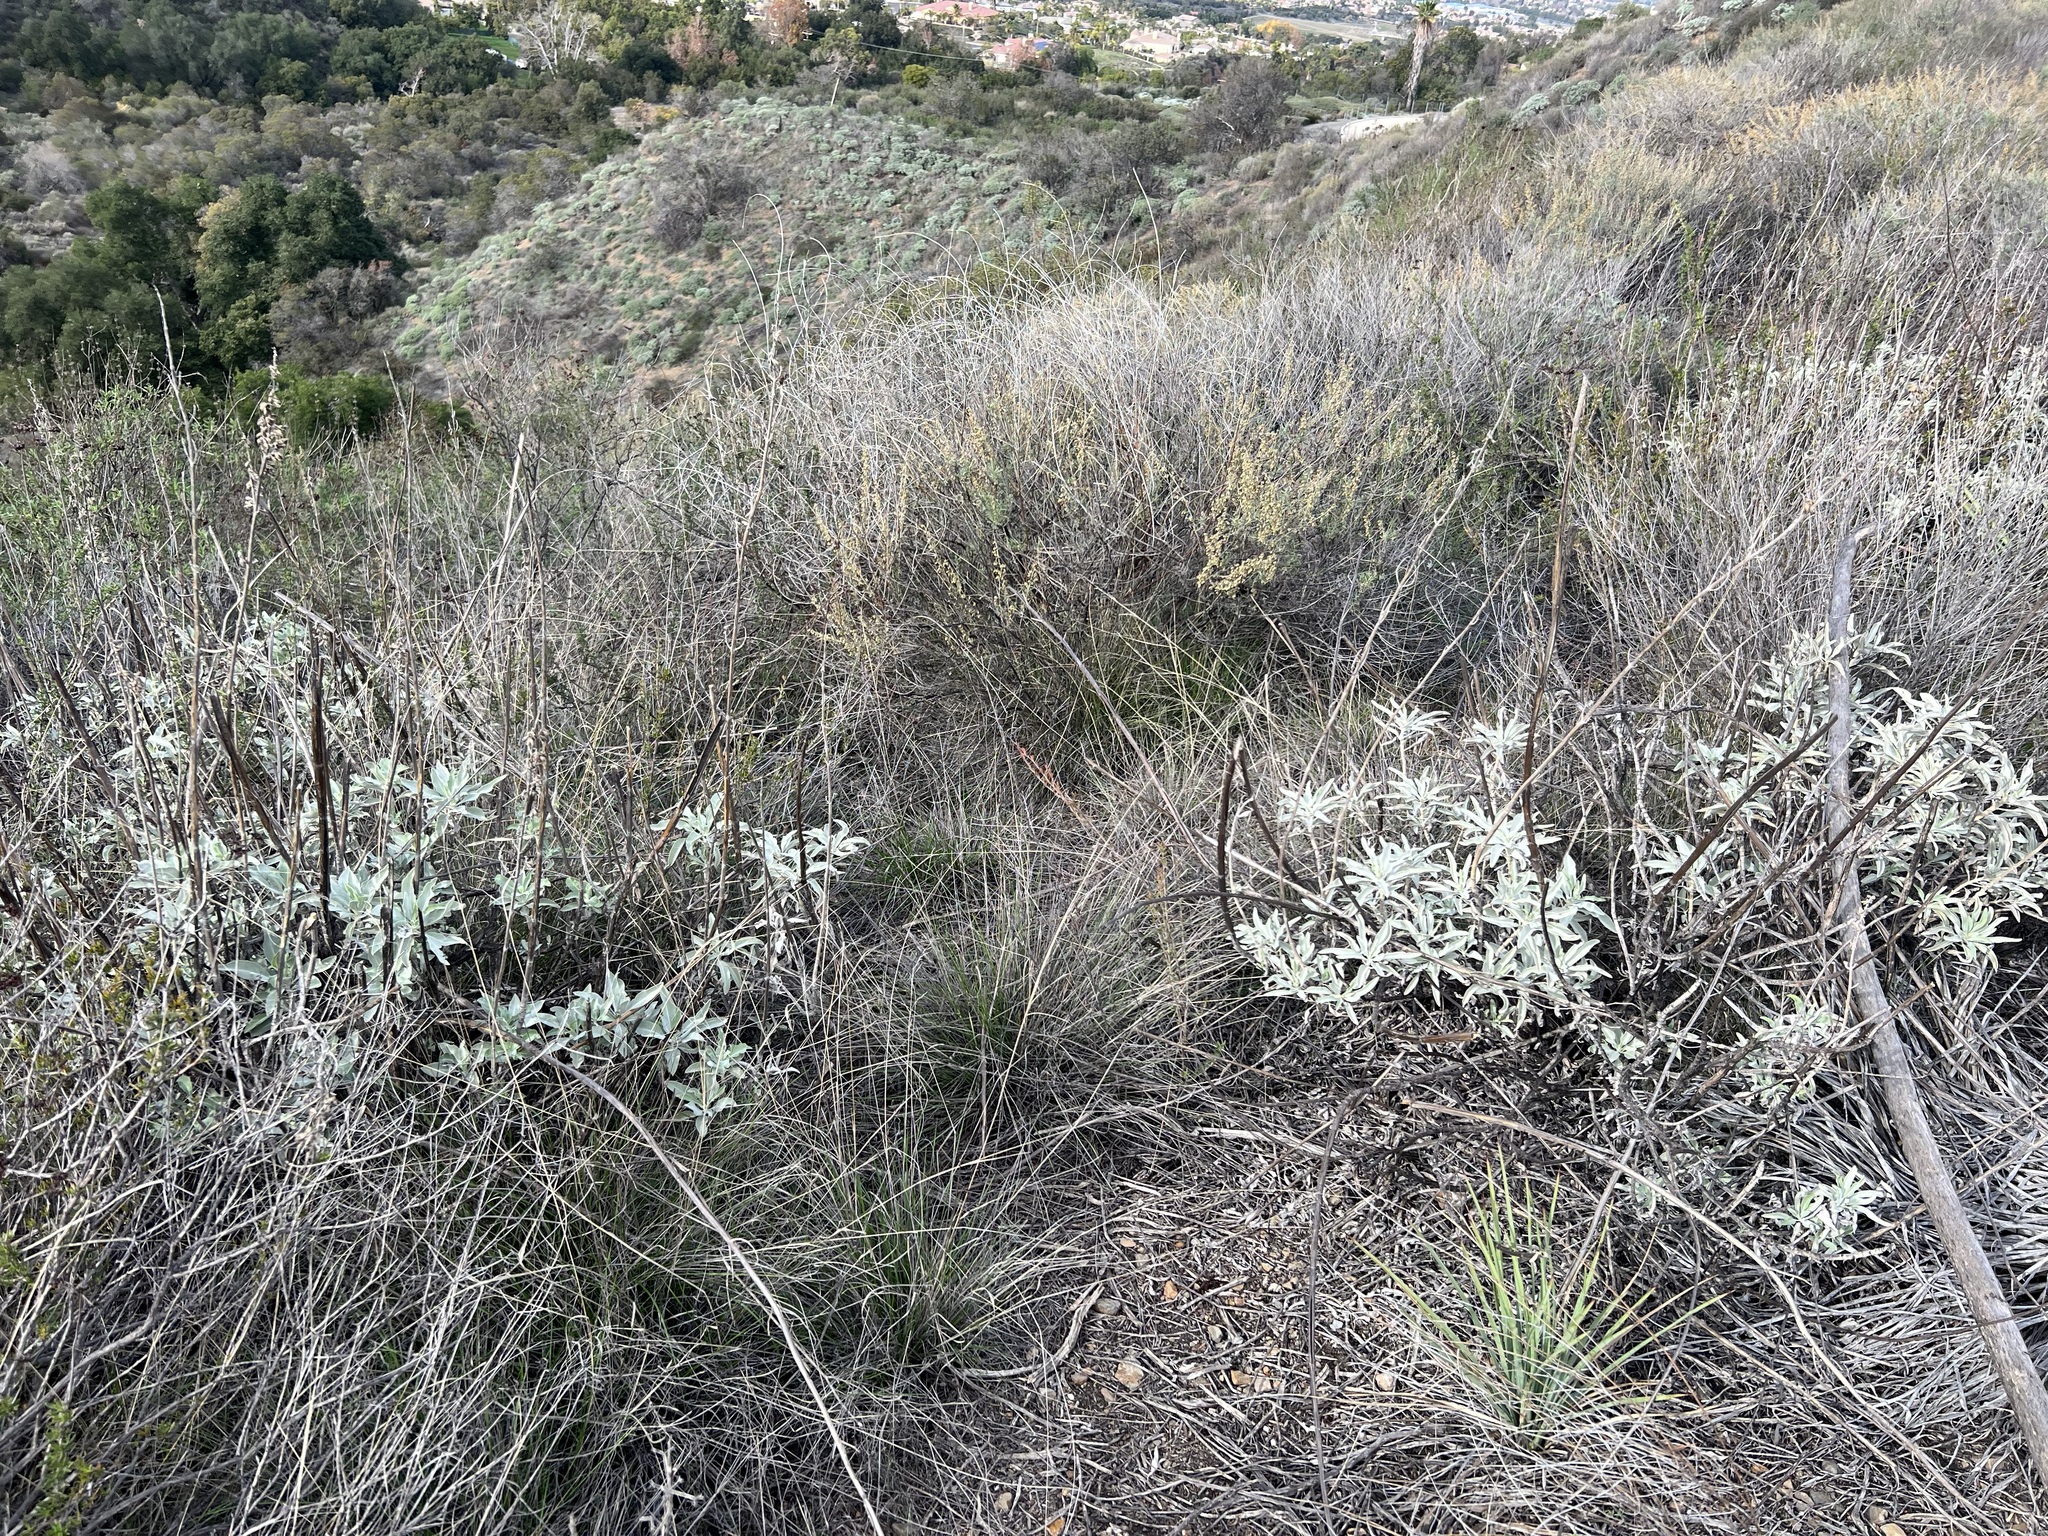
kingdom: Plantae
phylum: Tracheophyta
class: Magnoliopsida
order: Lamiales
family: Lamiaceae
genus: Salvia
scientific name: Salvia apiana
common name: White sage
